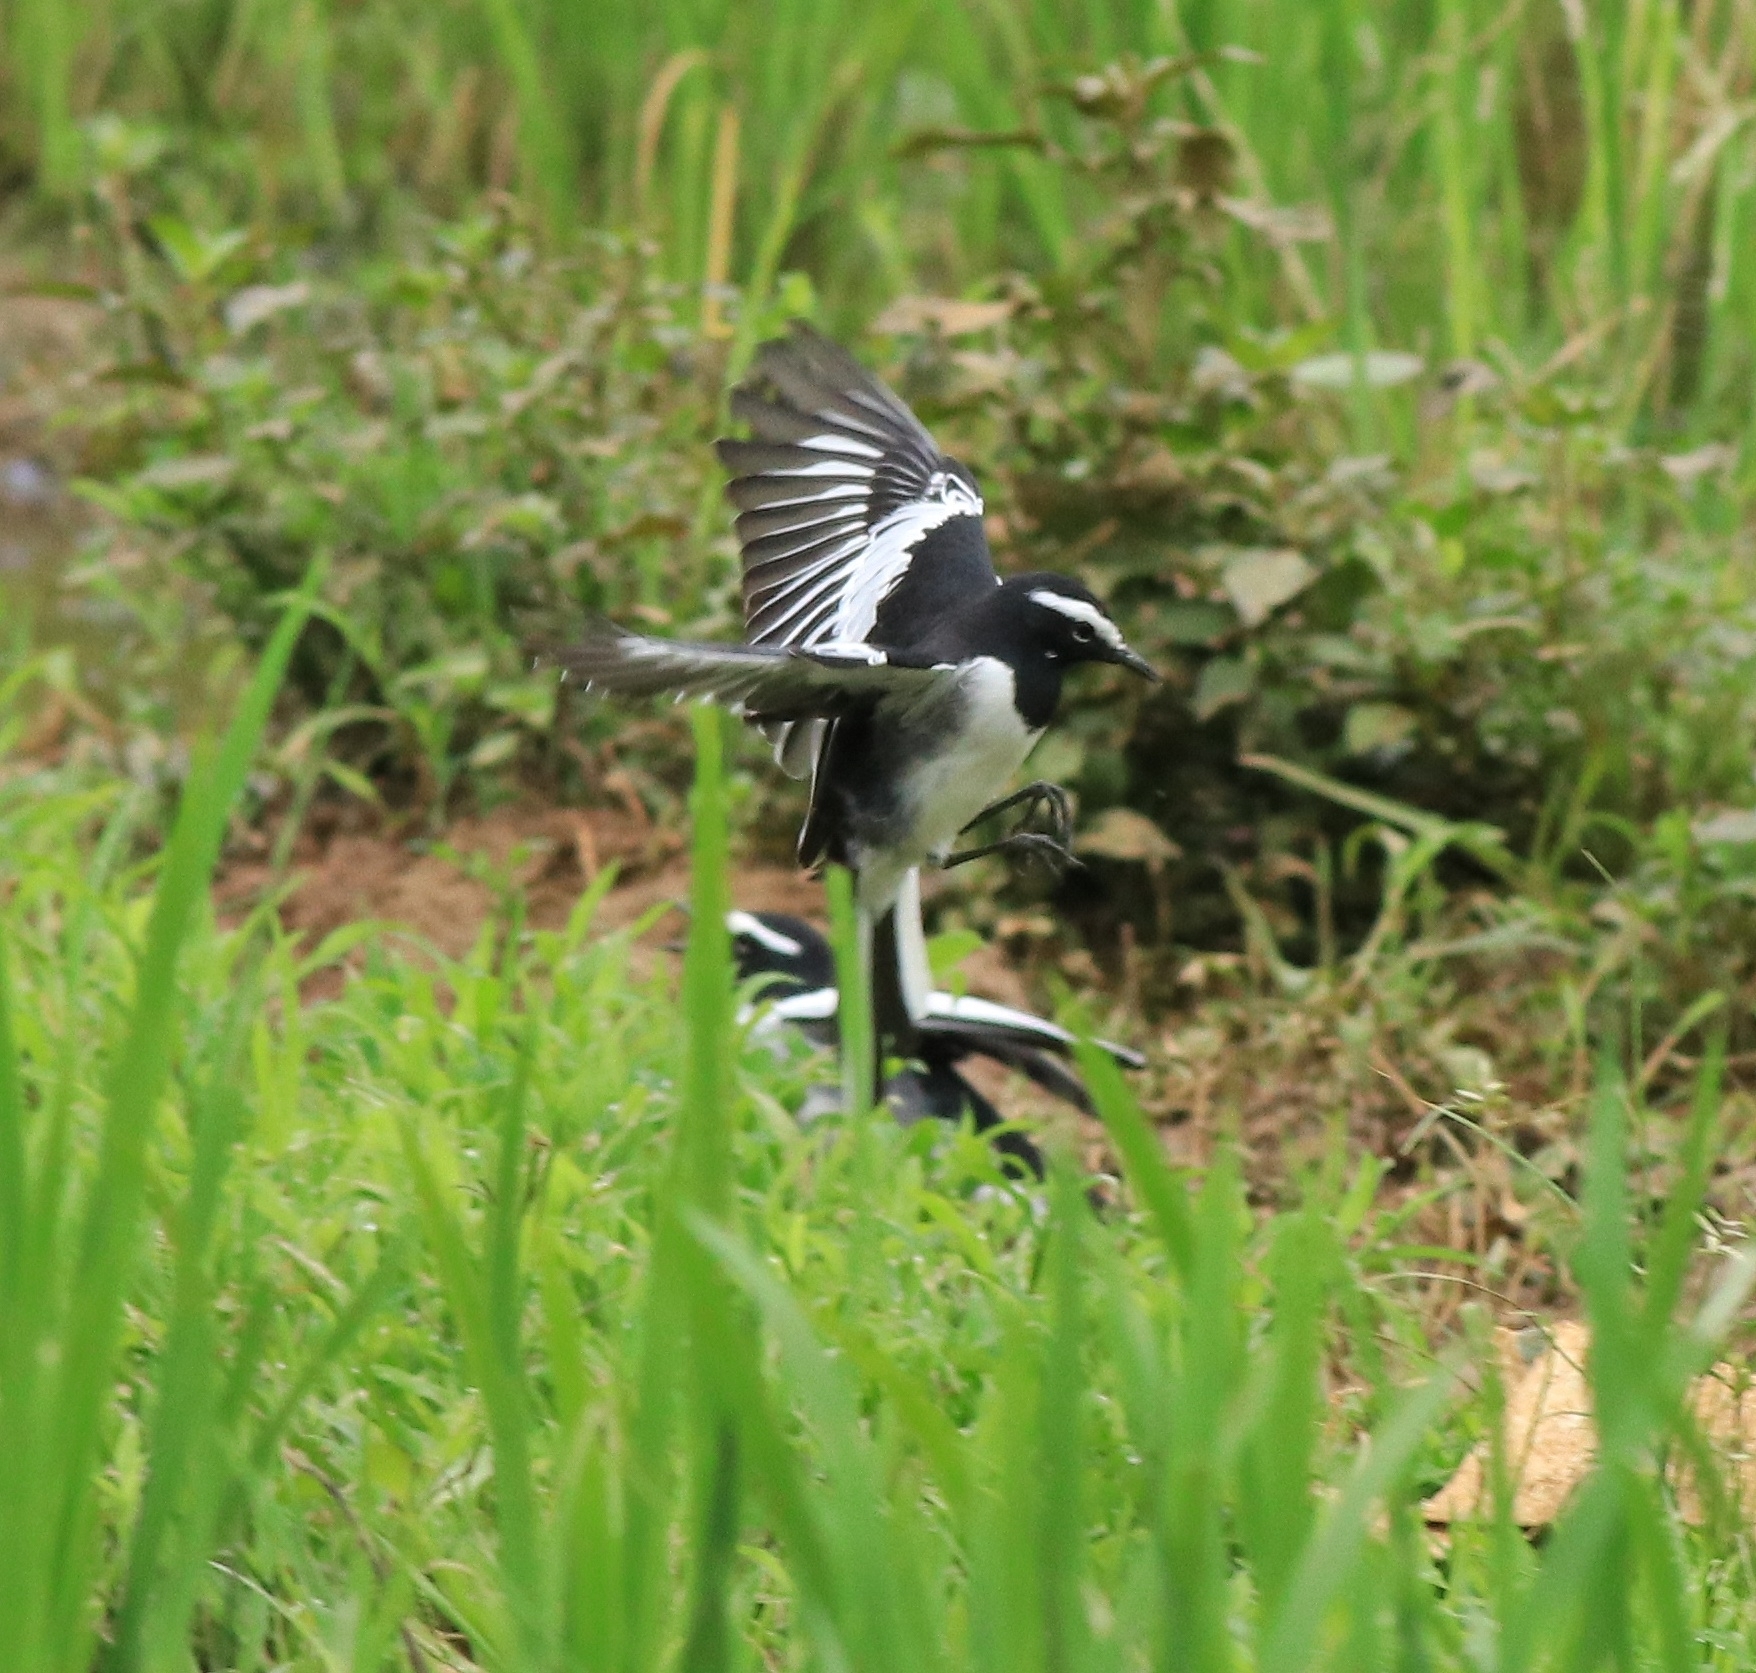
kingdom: Animalia
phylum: Chordata
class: Aves
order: Passeriformes
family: Motacillidae
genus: Motacilla
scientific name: Motacilla maderaspatensis
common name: White-browed wagtail
